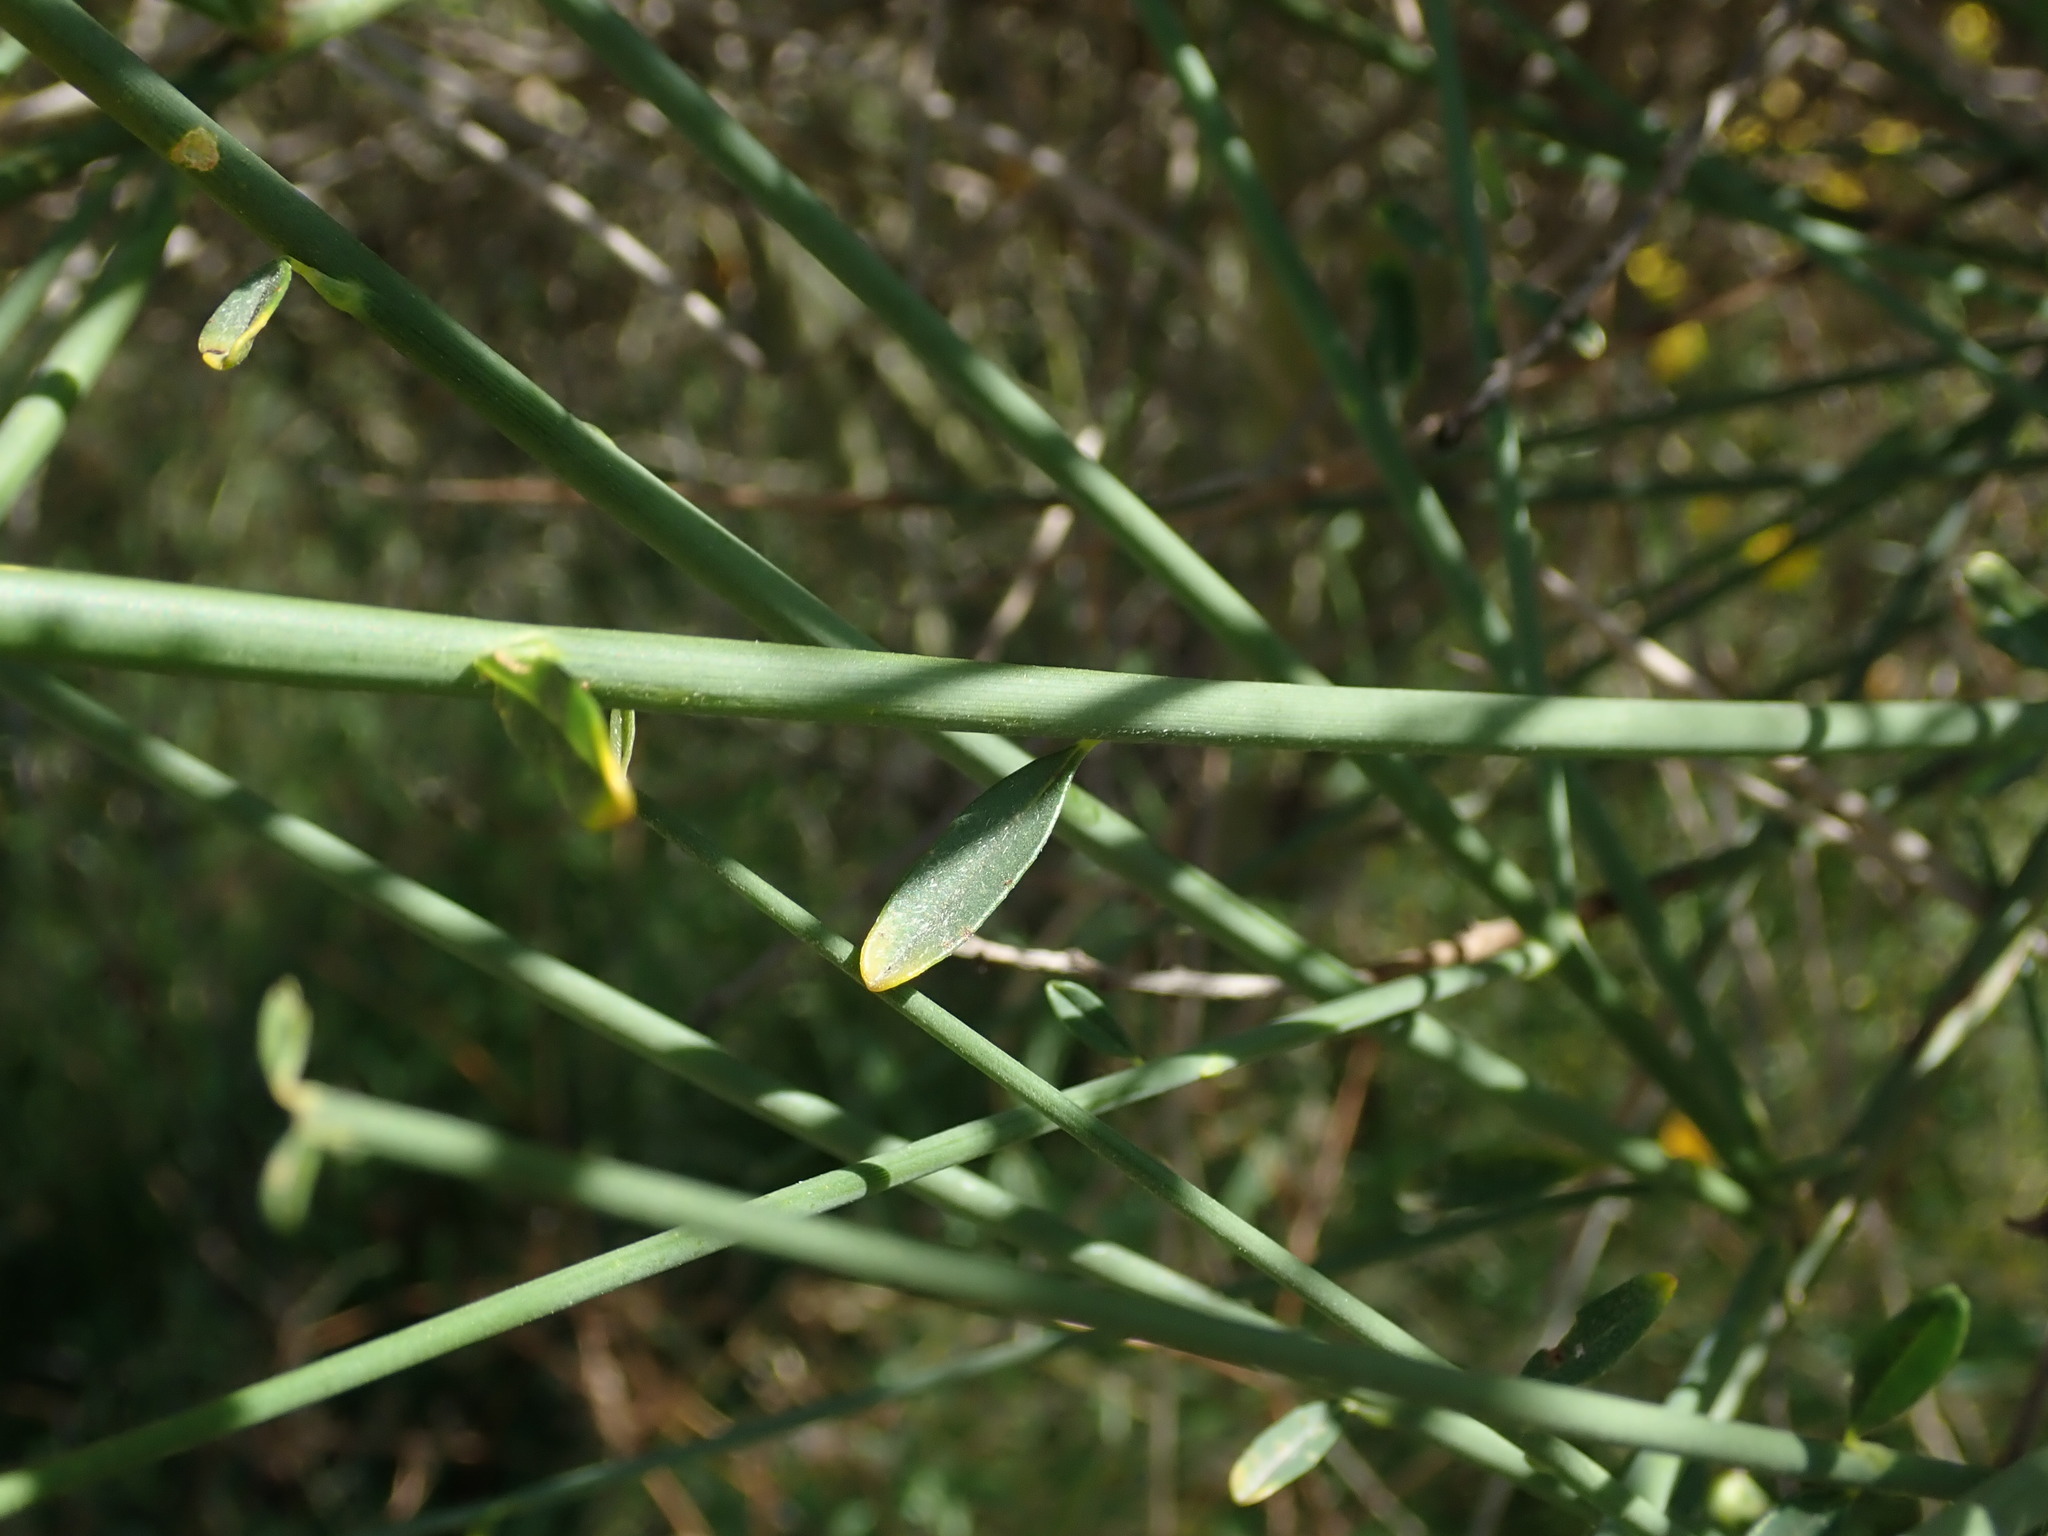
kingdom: Plantae
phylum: Tracheophyta
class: Magnoliopsida
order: Fabales
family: Fabaceae
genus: Spartium
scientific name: Spartium junceum
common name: Spanish broom
